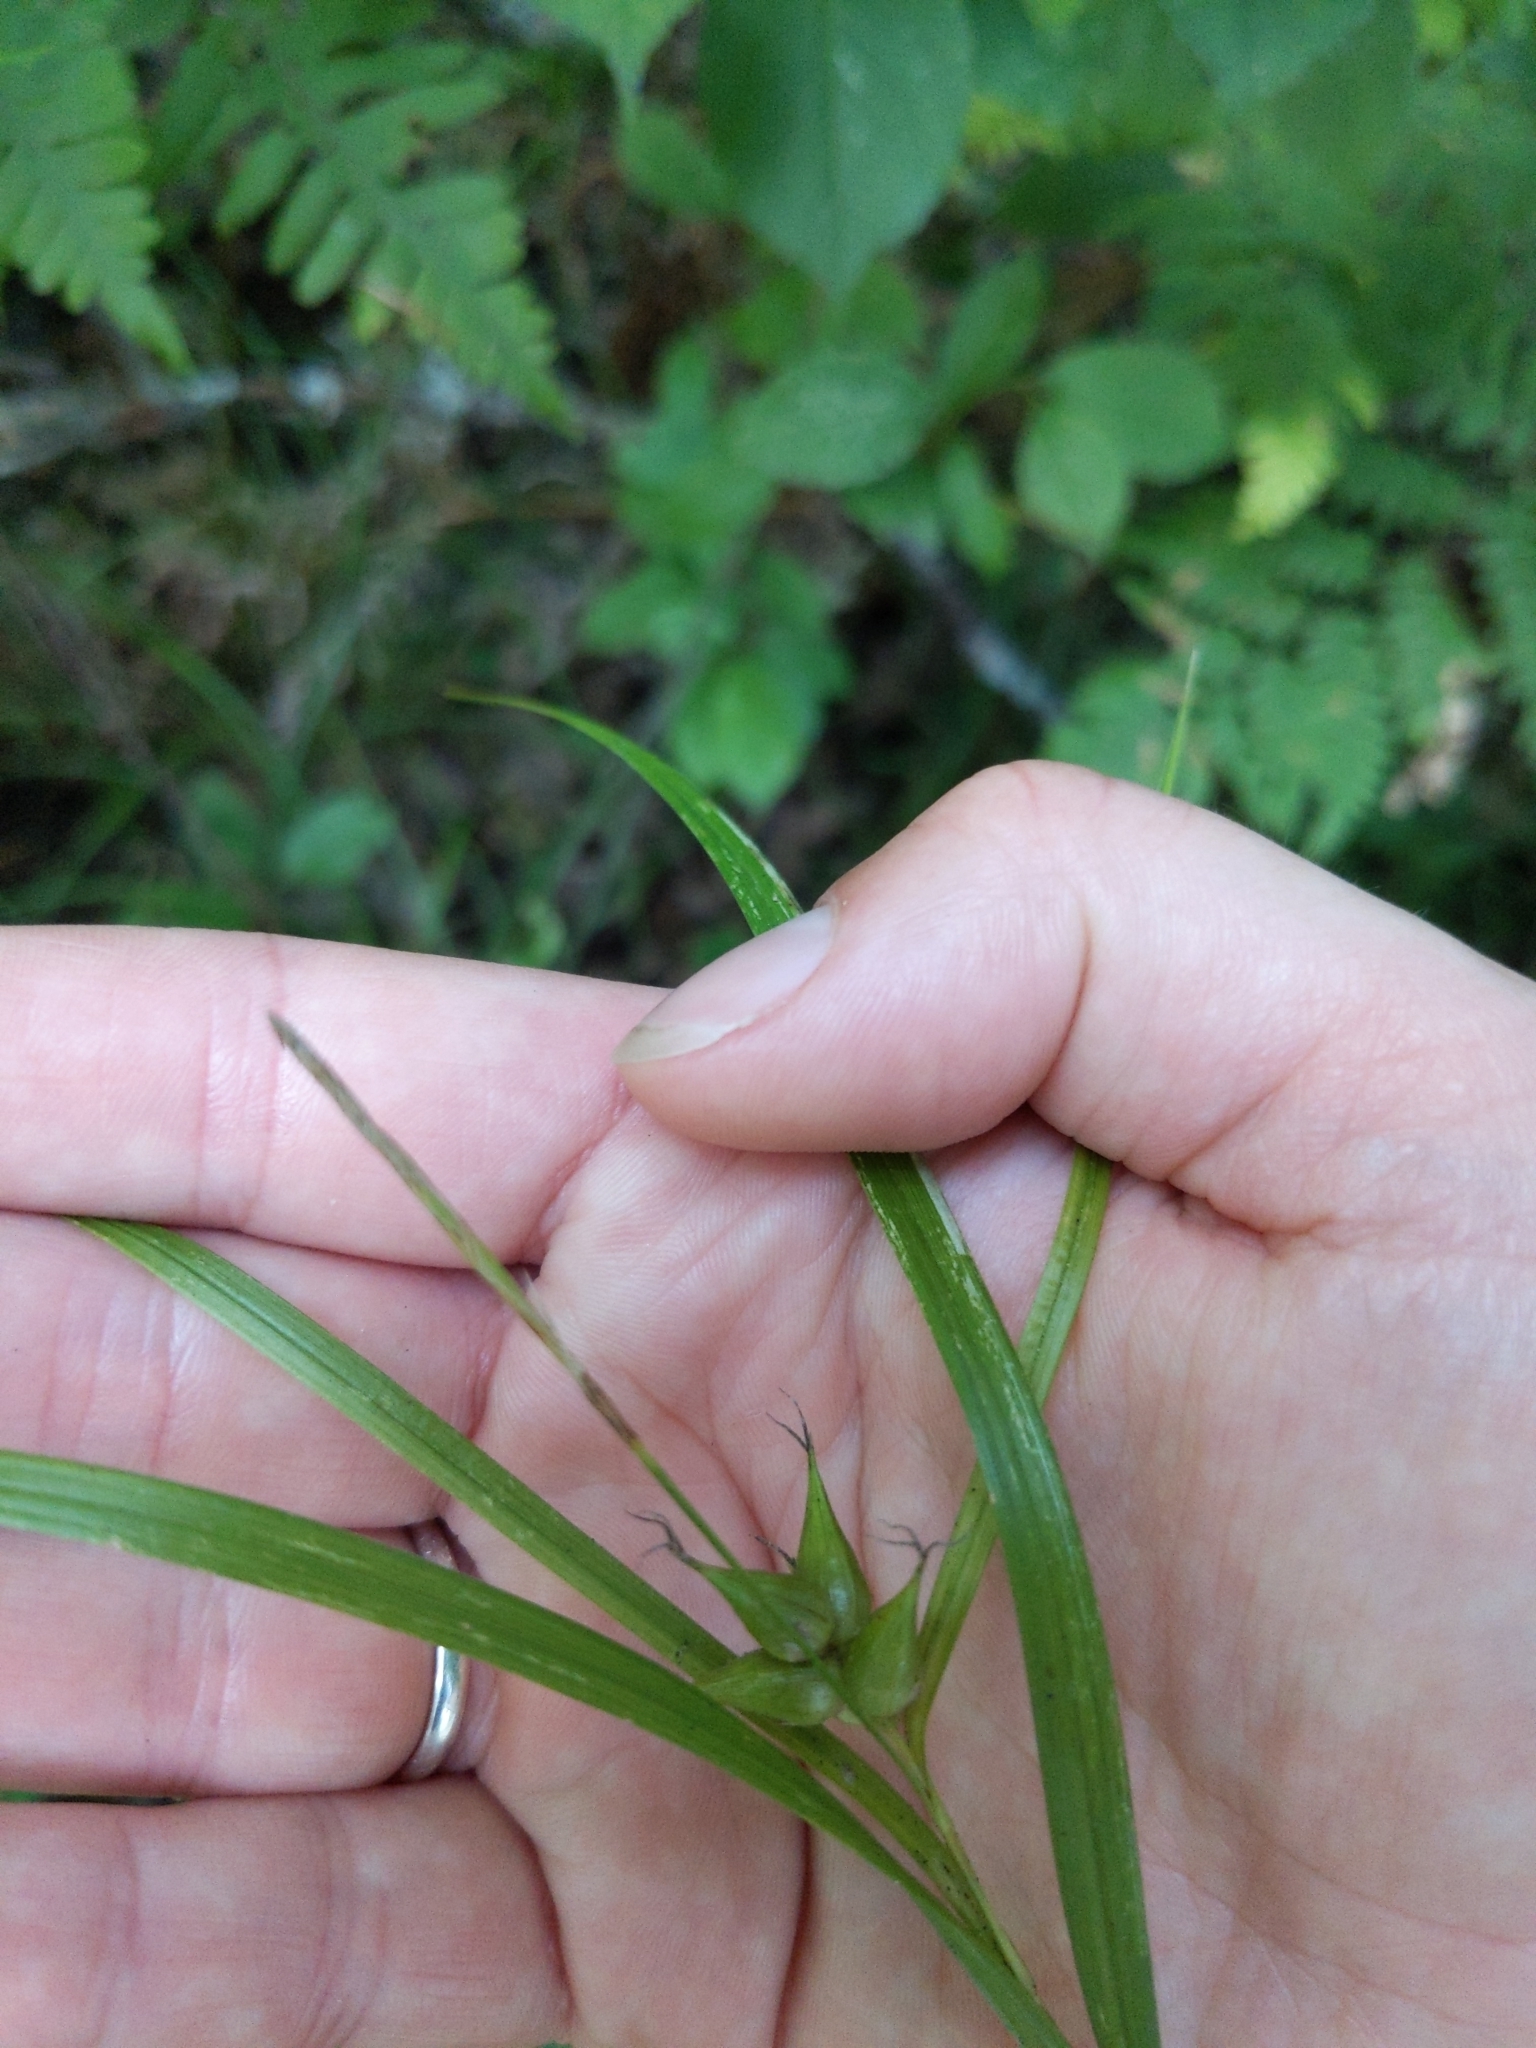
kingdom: Plantae
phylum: Tracheophyta
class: Liliopsida
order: Poales
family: Cyperaceae
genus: Carex
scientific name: Carex intumescens
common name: Greater bladder sedge
